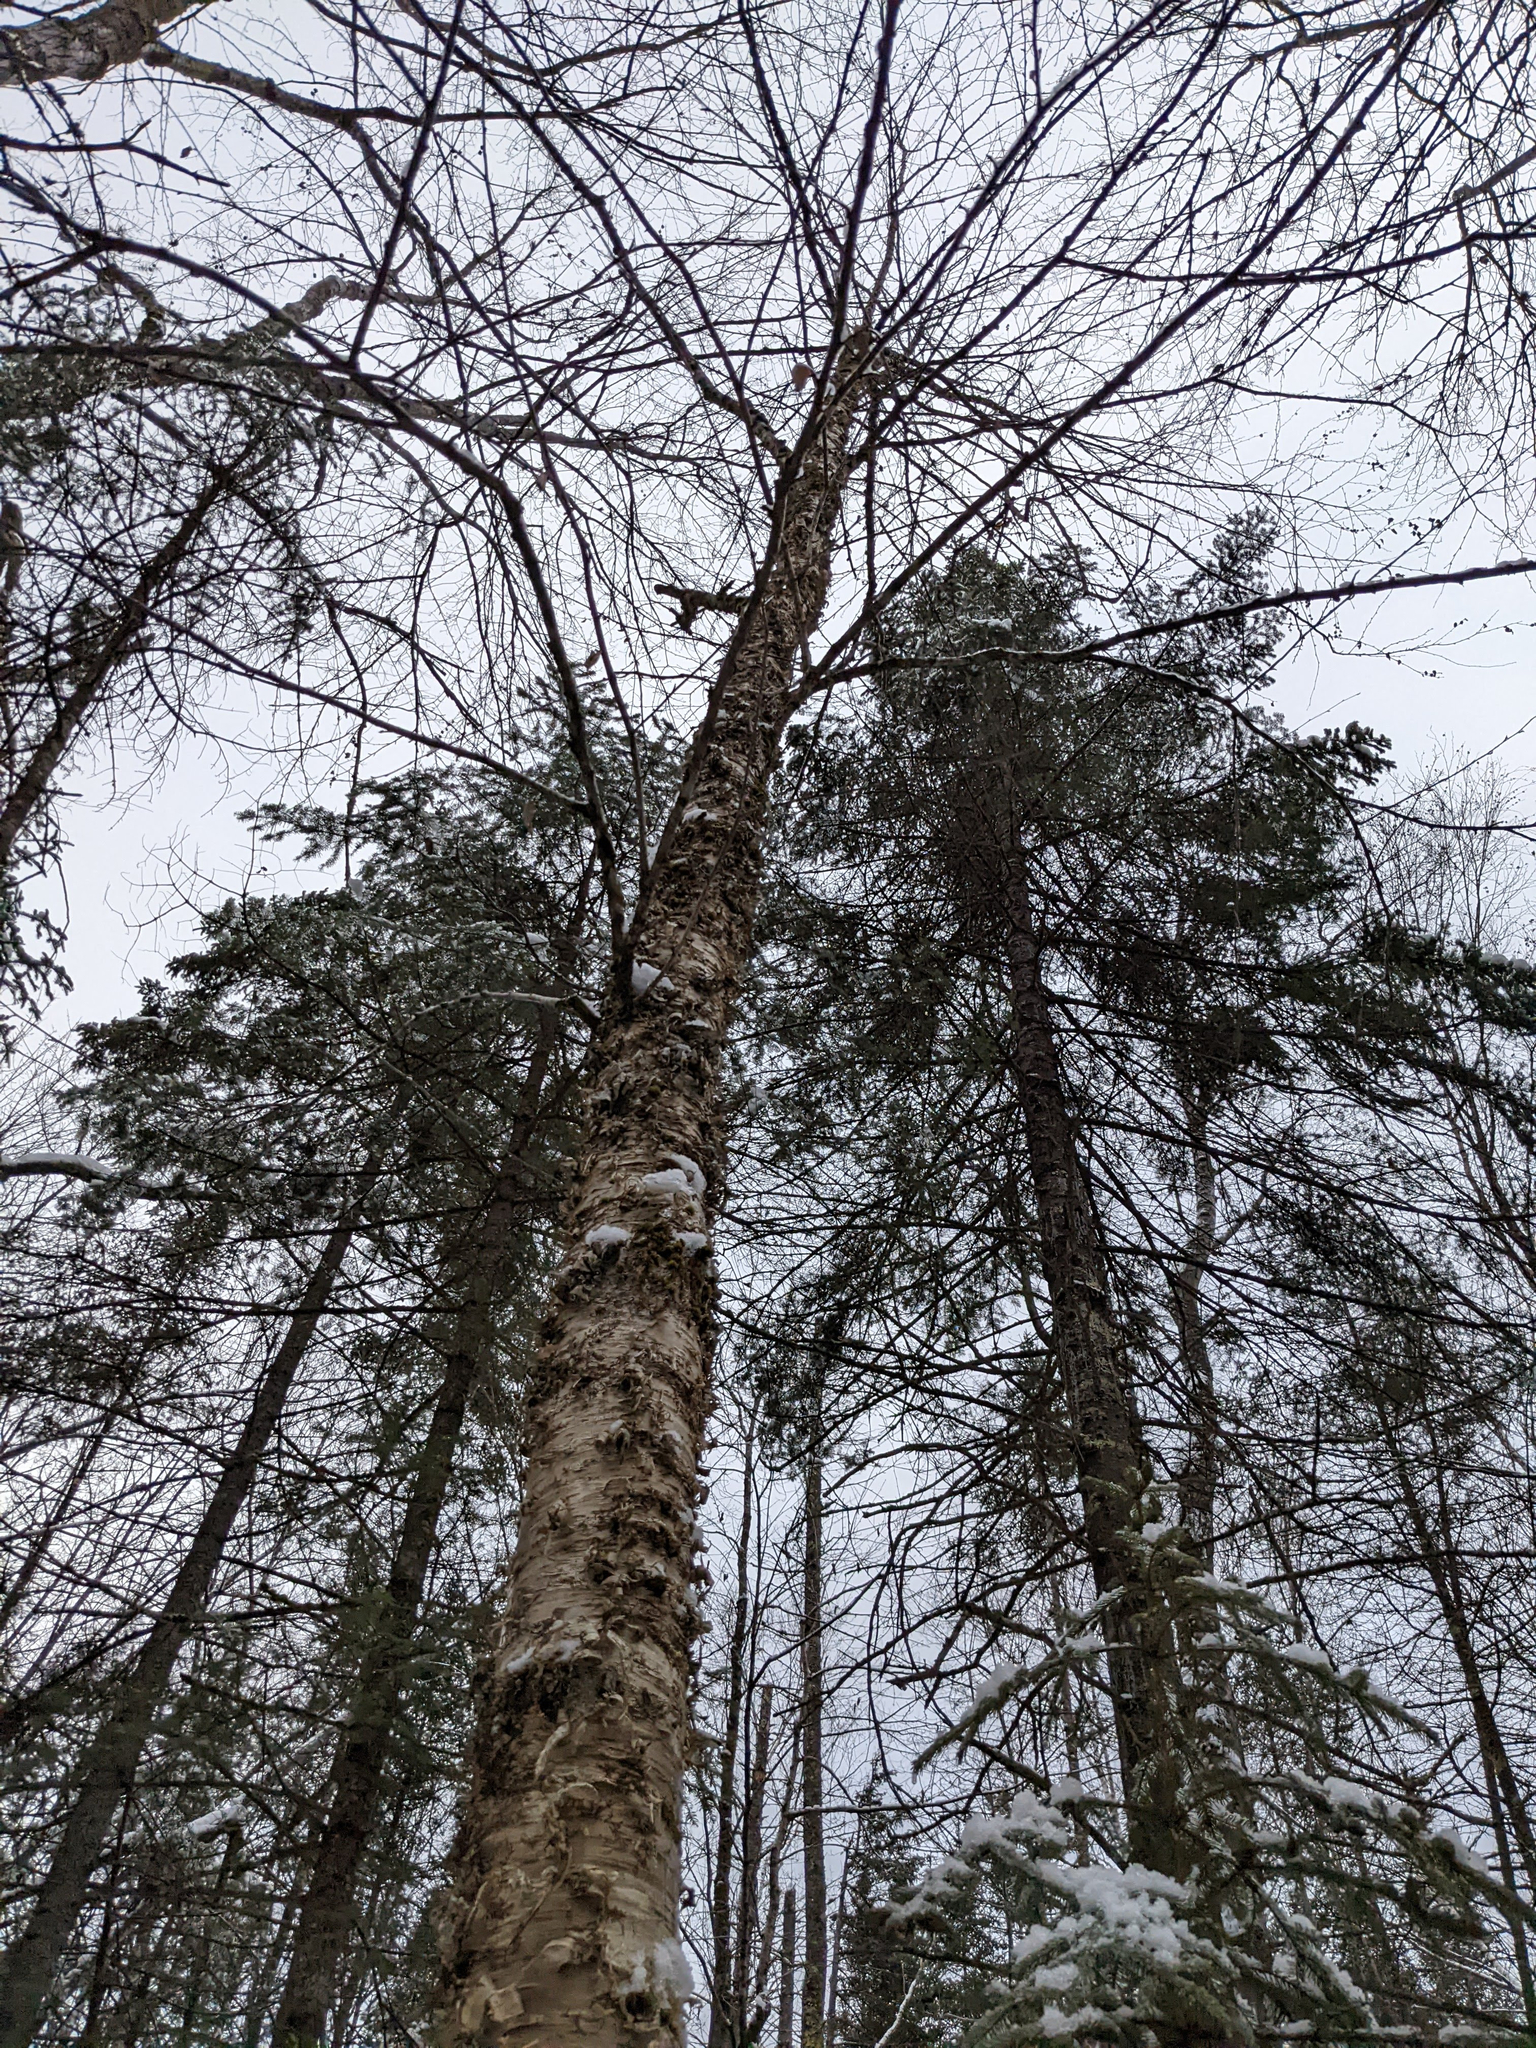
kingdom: Plantae
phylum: Tracheophyta
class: Magnoliopsida
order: Fagales
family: Betulaceae
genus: Betula
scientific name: Betula alleghaniensis
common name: Yellow birch
